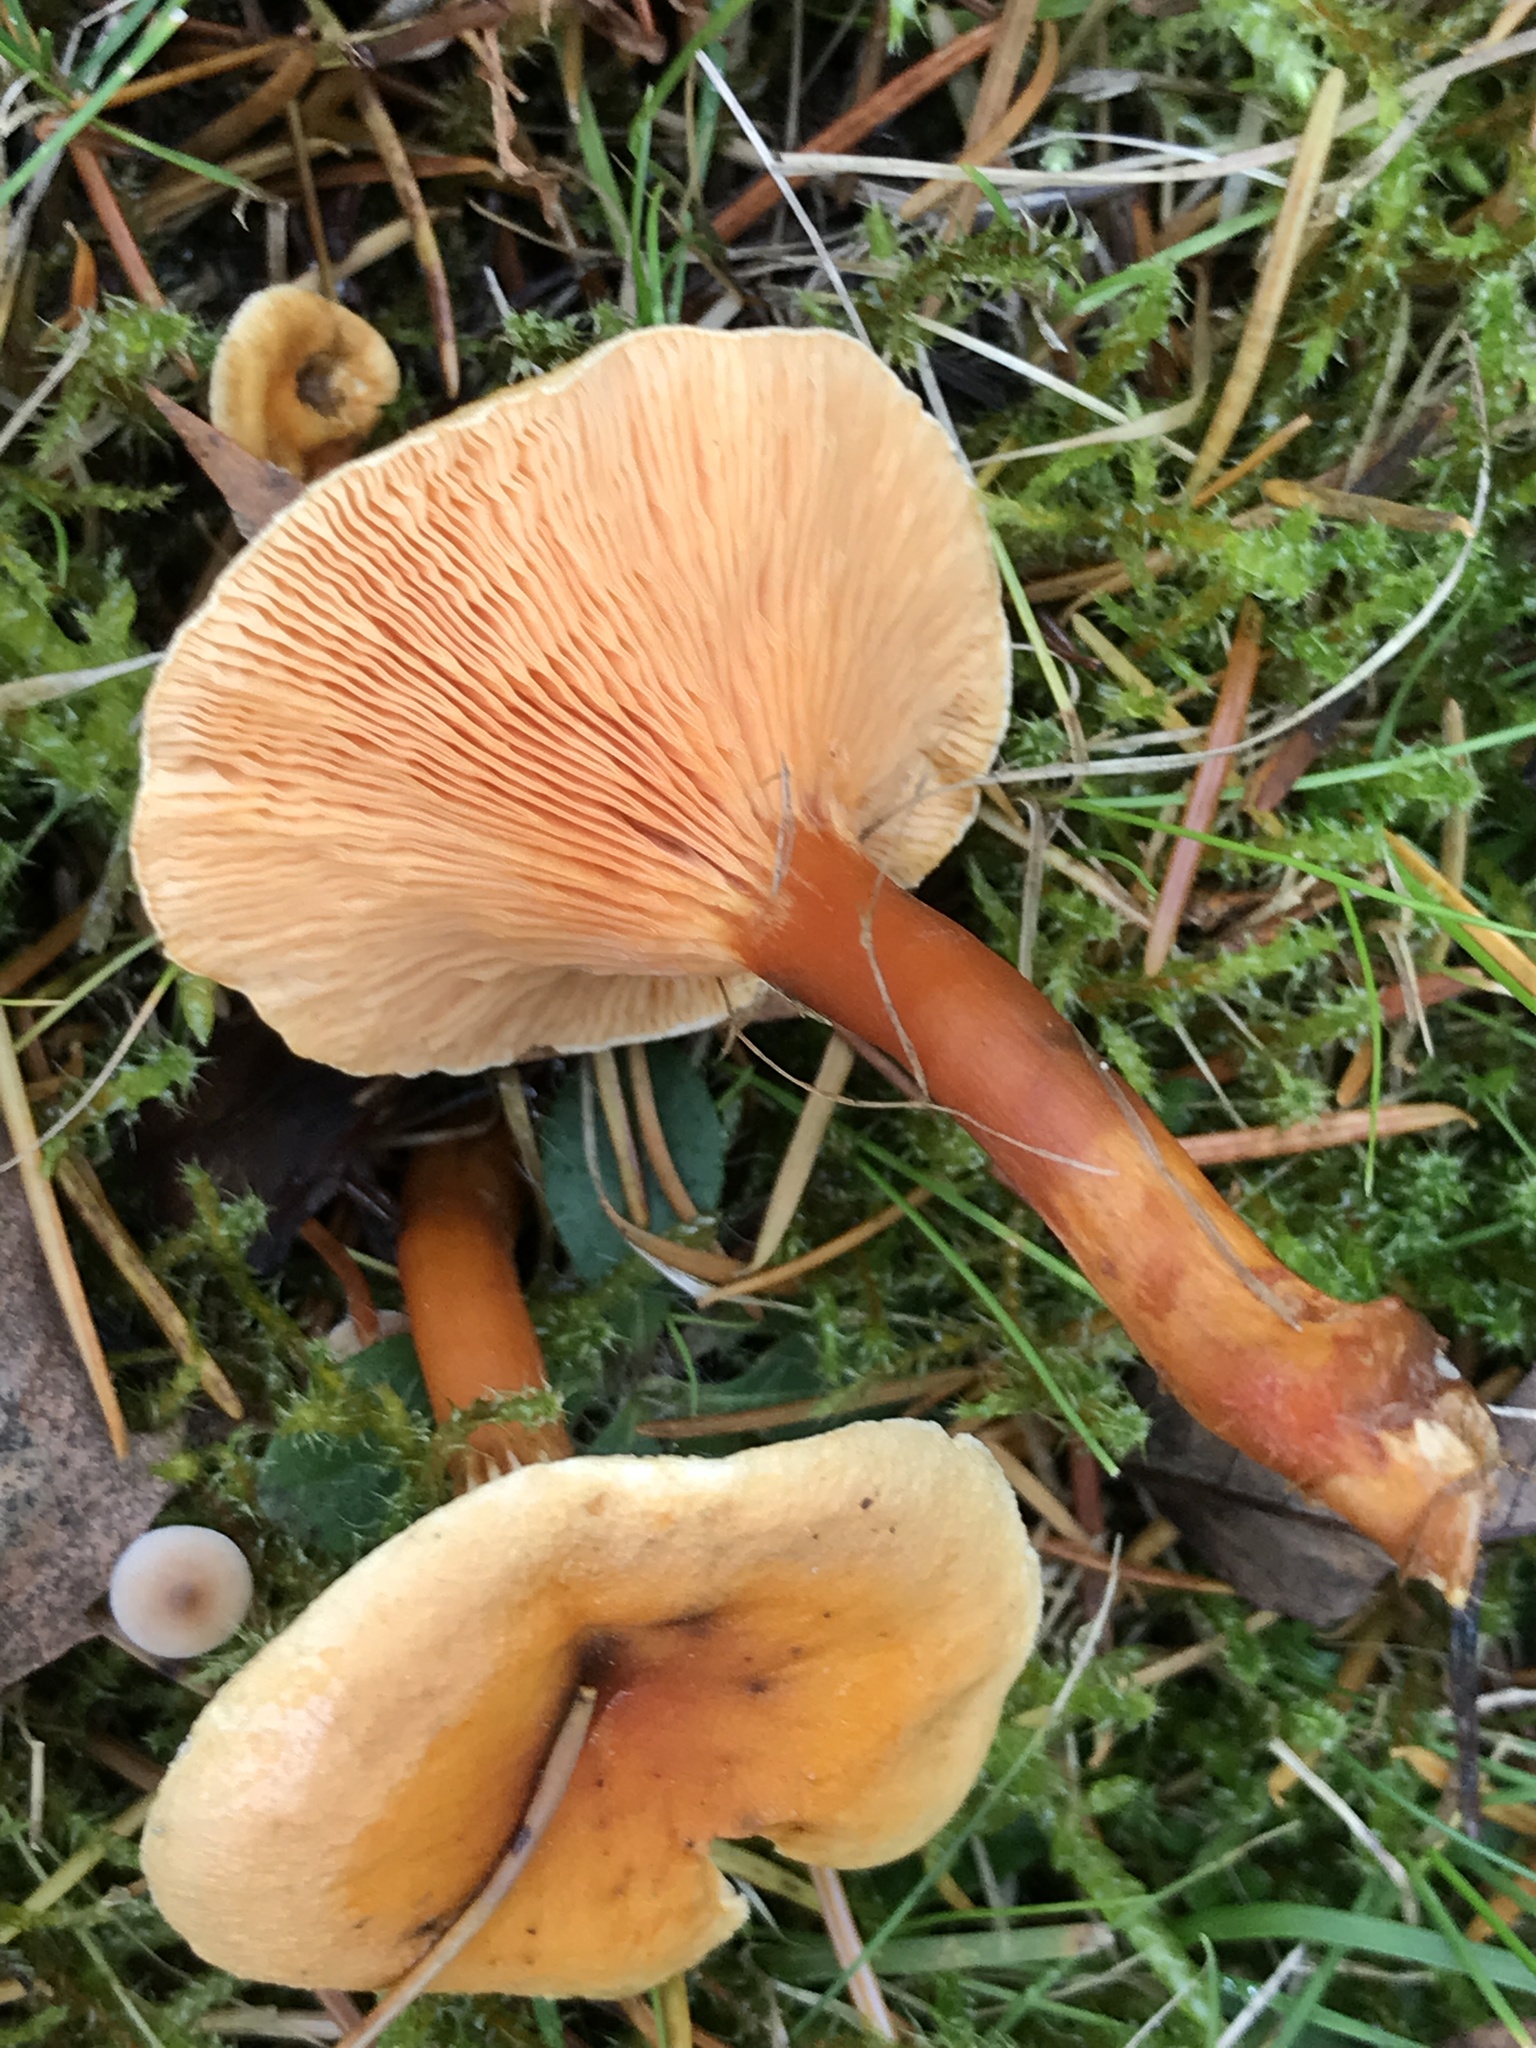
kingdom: Fungi
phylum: Basidiomycota
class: Agaricomycetes
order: Boletales
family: Hygrophoropsidaceae
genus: Hygrophoropsis
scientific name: Hygrophoropsis aurantiaca
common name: False chanterelle
